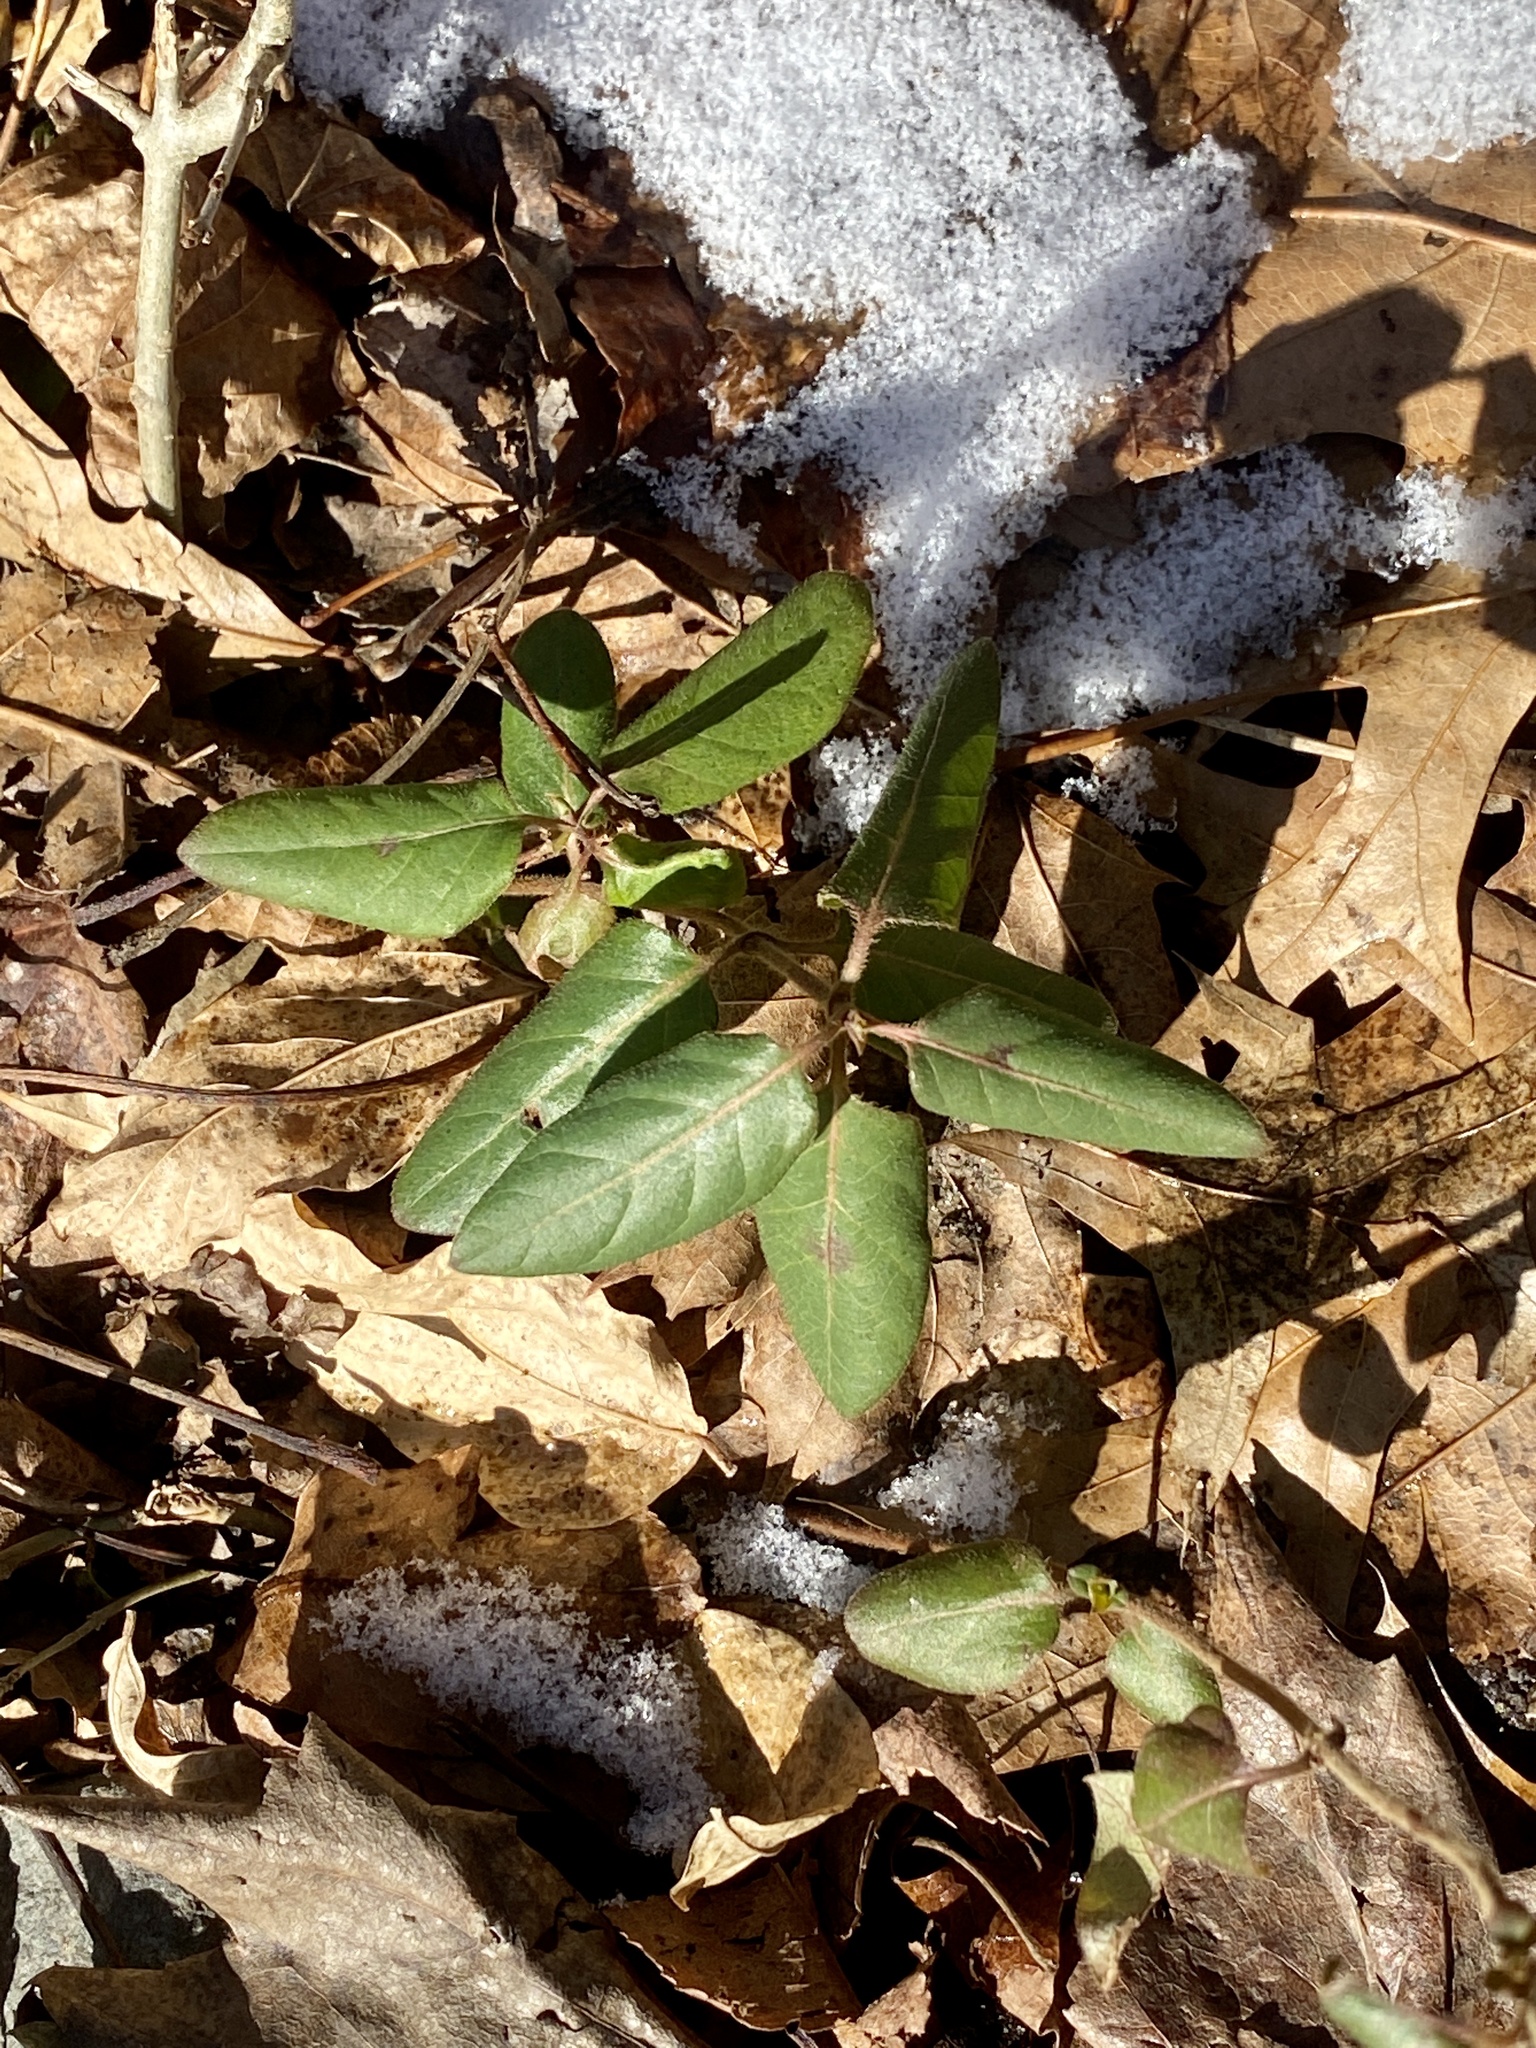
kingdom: Plantae
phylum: Tracheophyta
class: Magnoliopsida
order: Dipsacales
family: Caprifoliaceae
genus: Lonicera
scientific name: Lonicera japonica
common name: Japanese honeysuckle
